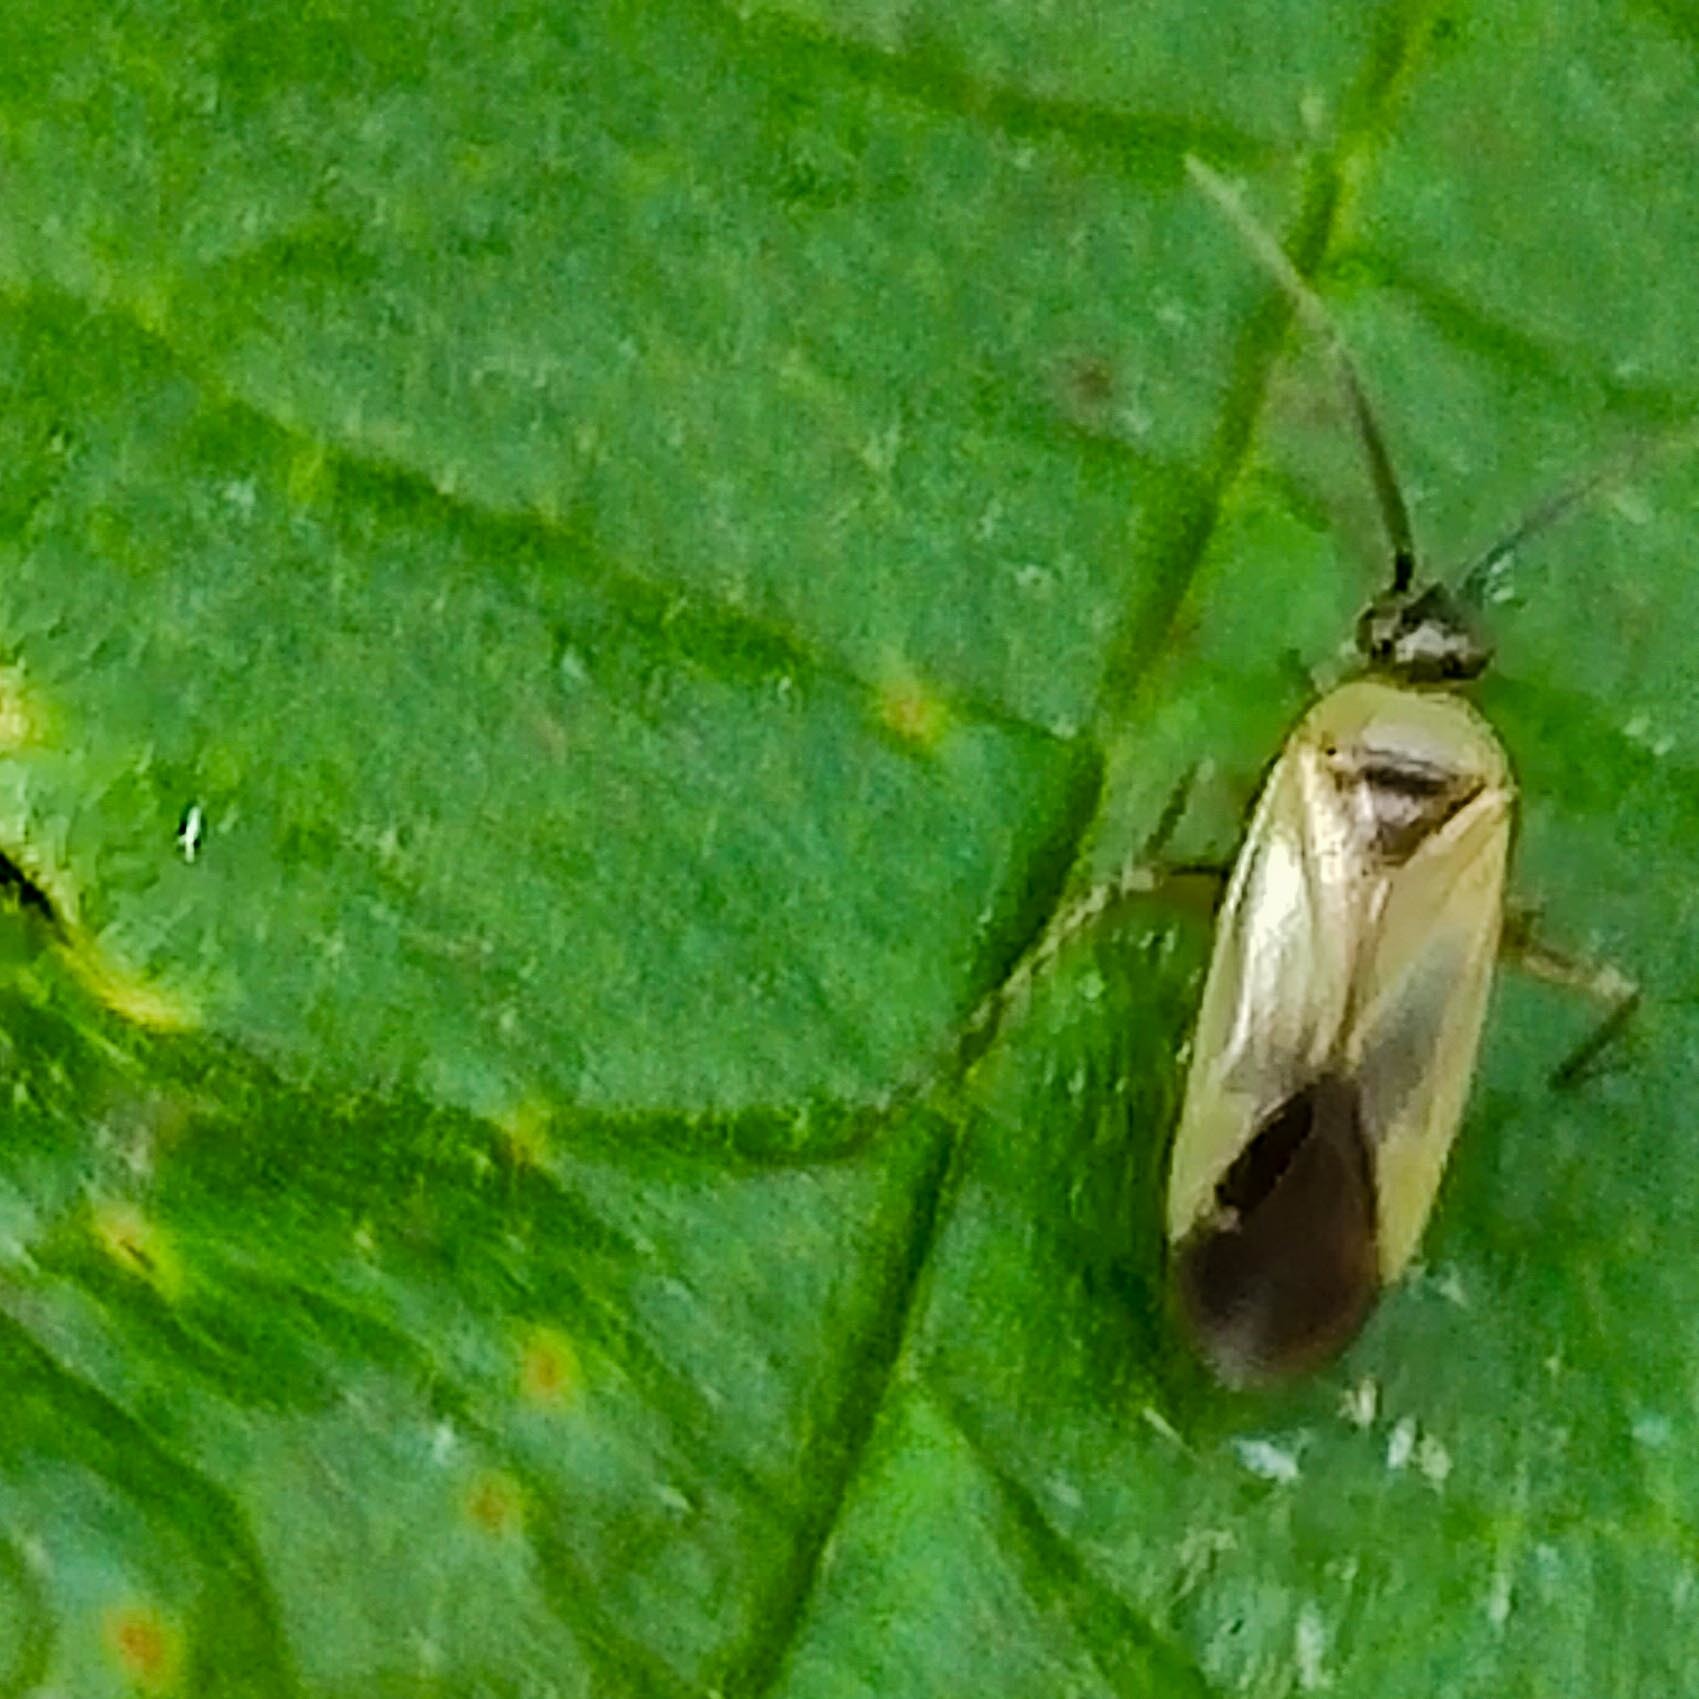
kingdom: Animalia
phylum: Arthropoda
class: Insecta
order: Hemiptera
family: Miridae
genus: Plagiognathus
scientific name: Plagiognathus arbustorum
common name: Plant bug
